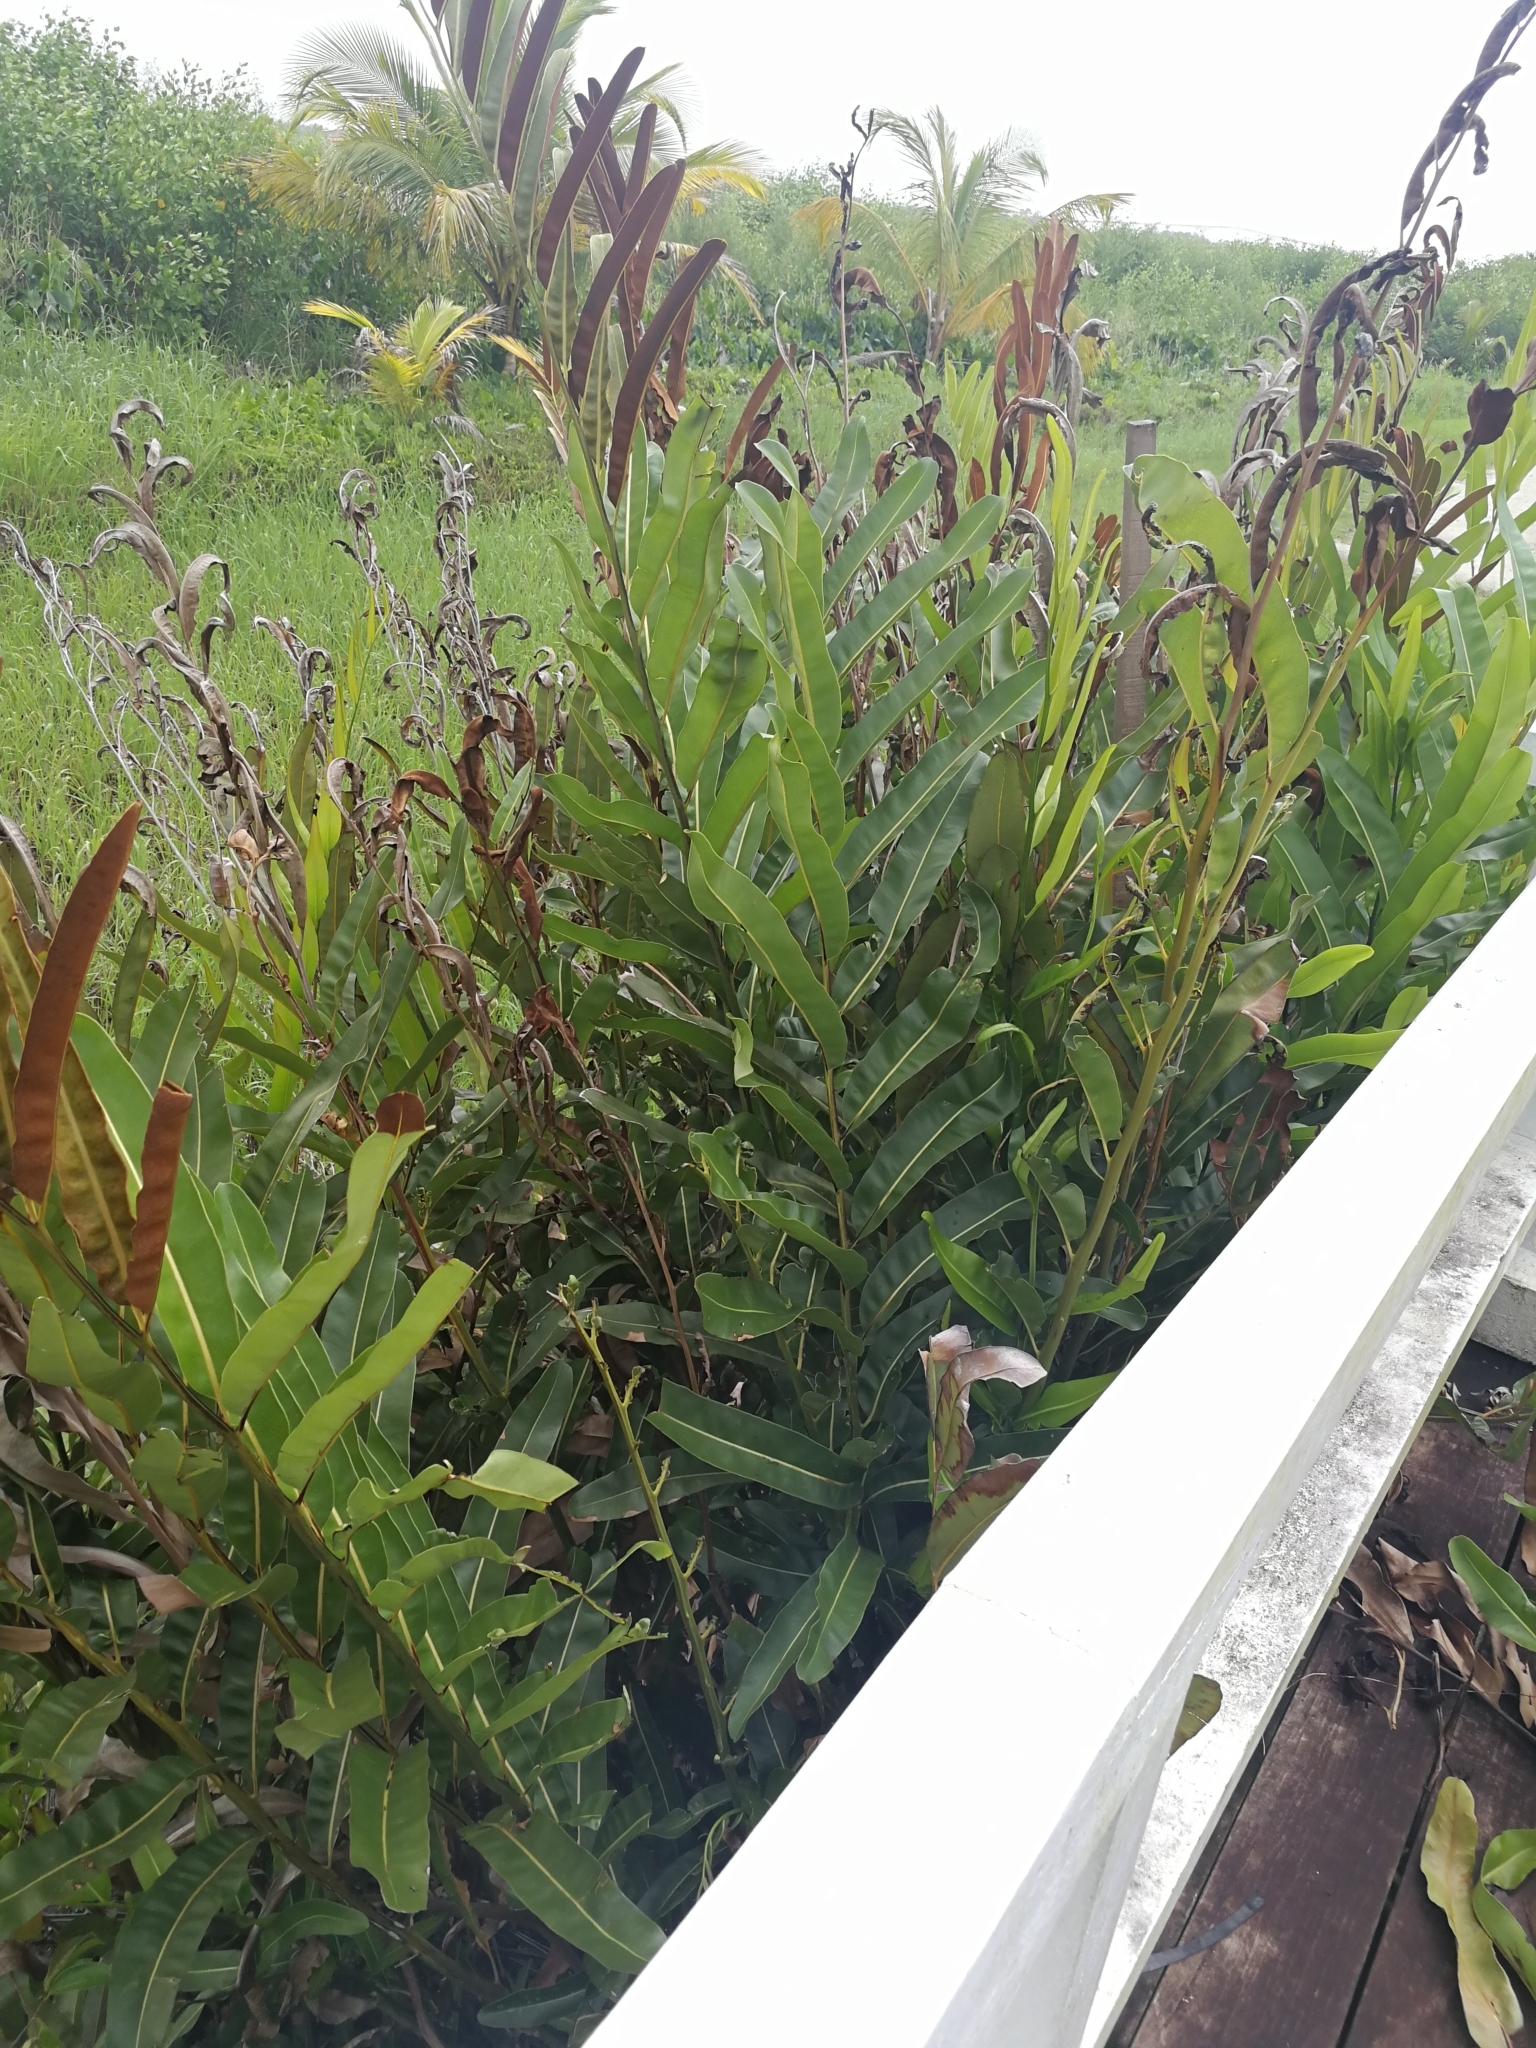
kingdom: Plantae
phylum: Tracheophyta
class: Polypodiopsida
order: Polypodiales
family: Pteridaceae
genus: Acrostichum
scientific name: Acrostichum aureum
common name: Leather fern
